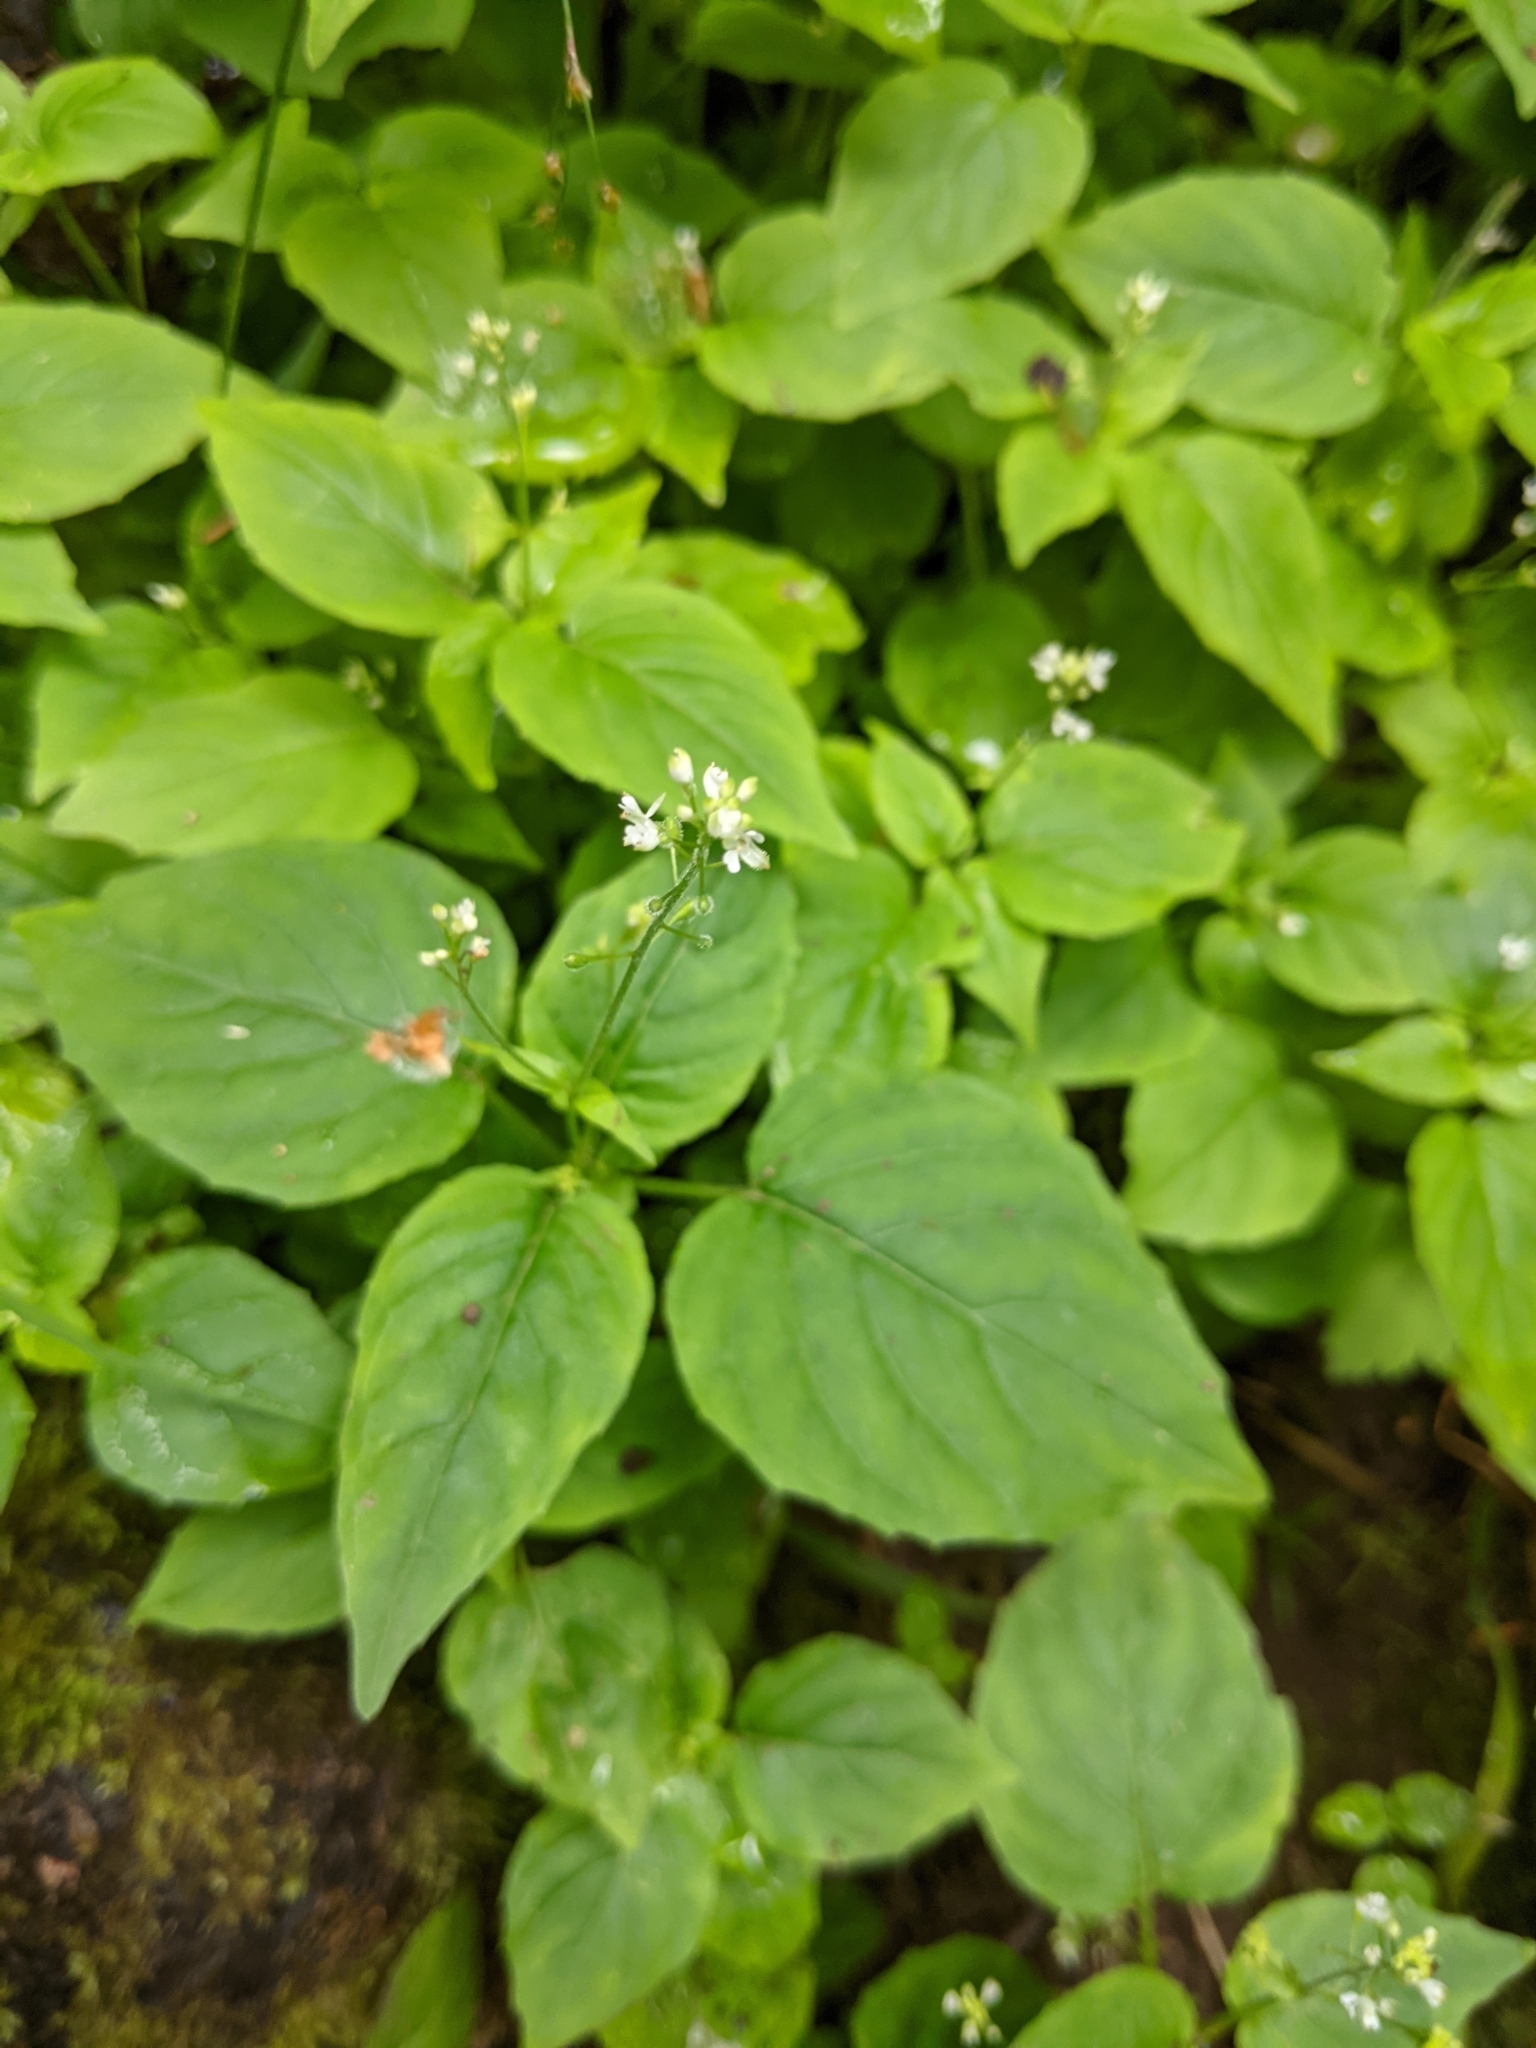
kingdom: Plantae
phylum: Tracheophyta
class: Magnoliopsida
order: Myrtales
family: Onagraceae
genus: Circaea
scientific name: Circaea alpina
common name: Alpine enchanter's-nightshade
